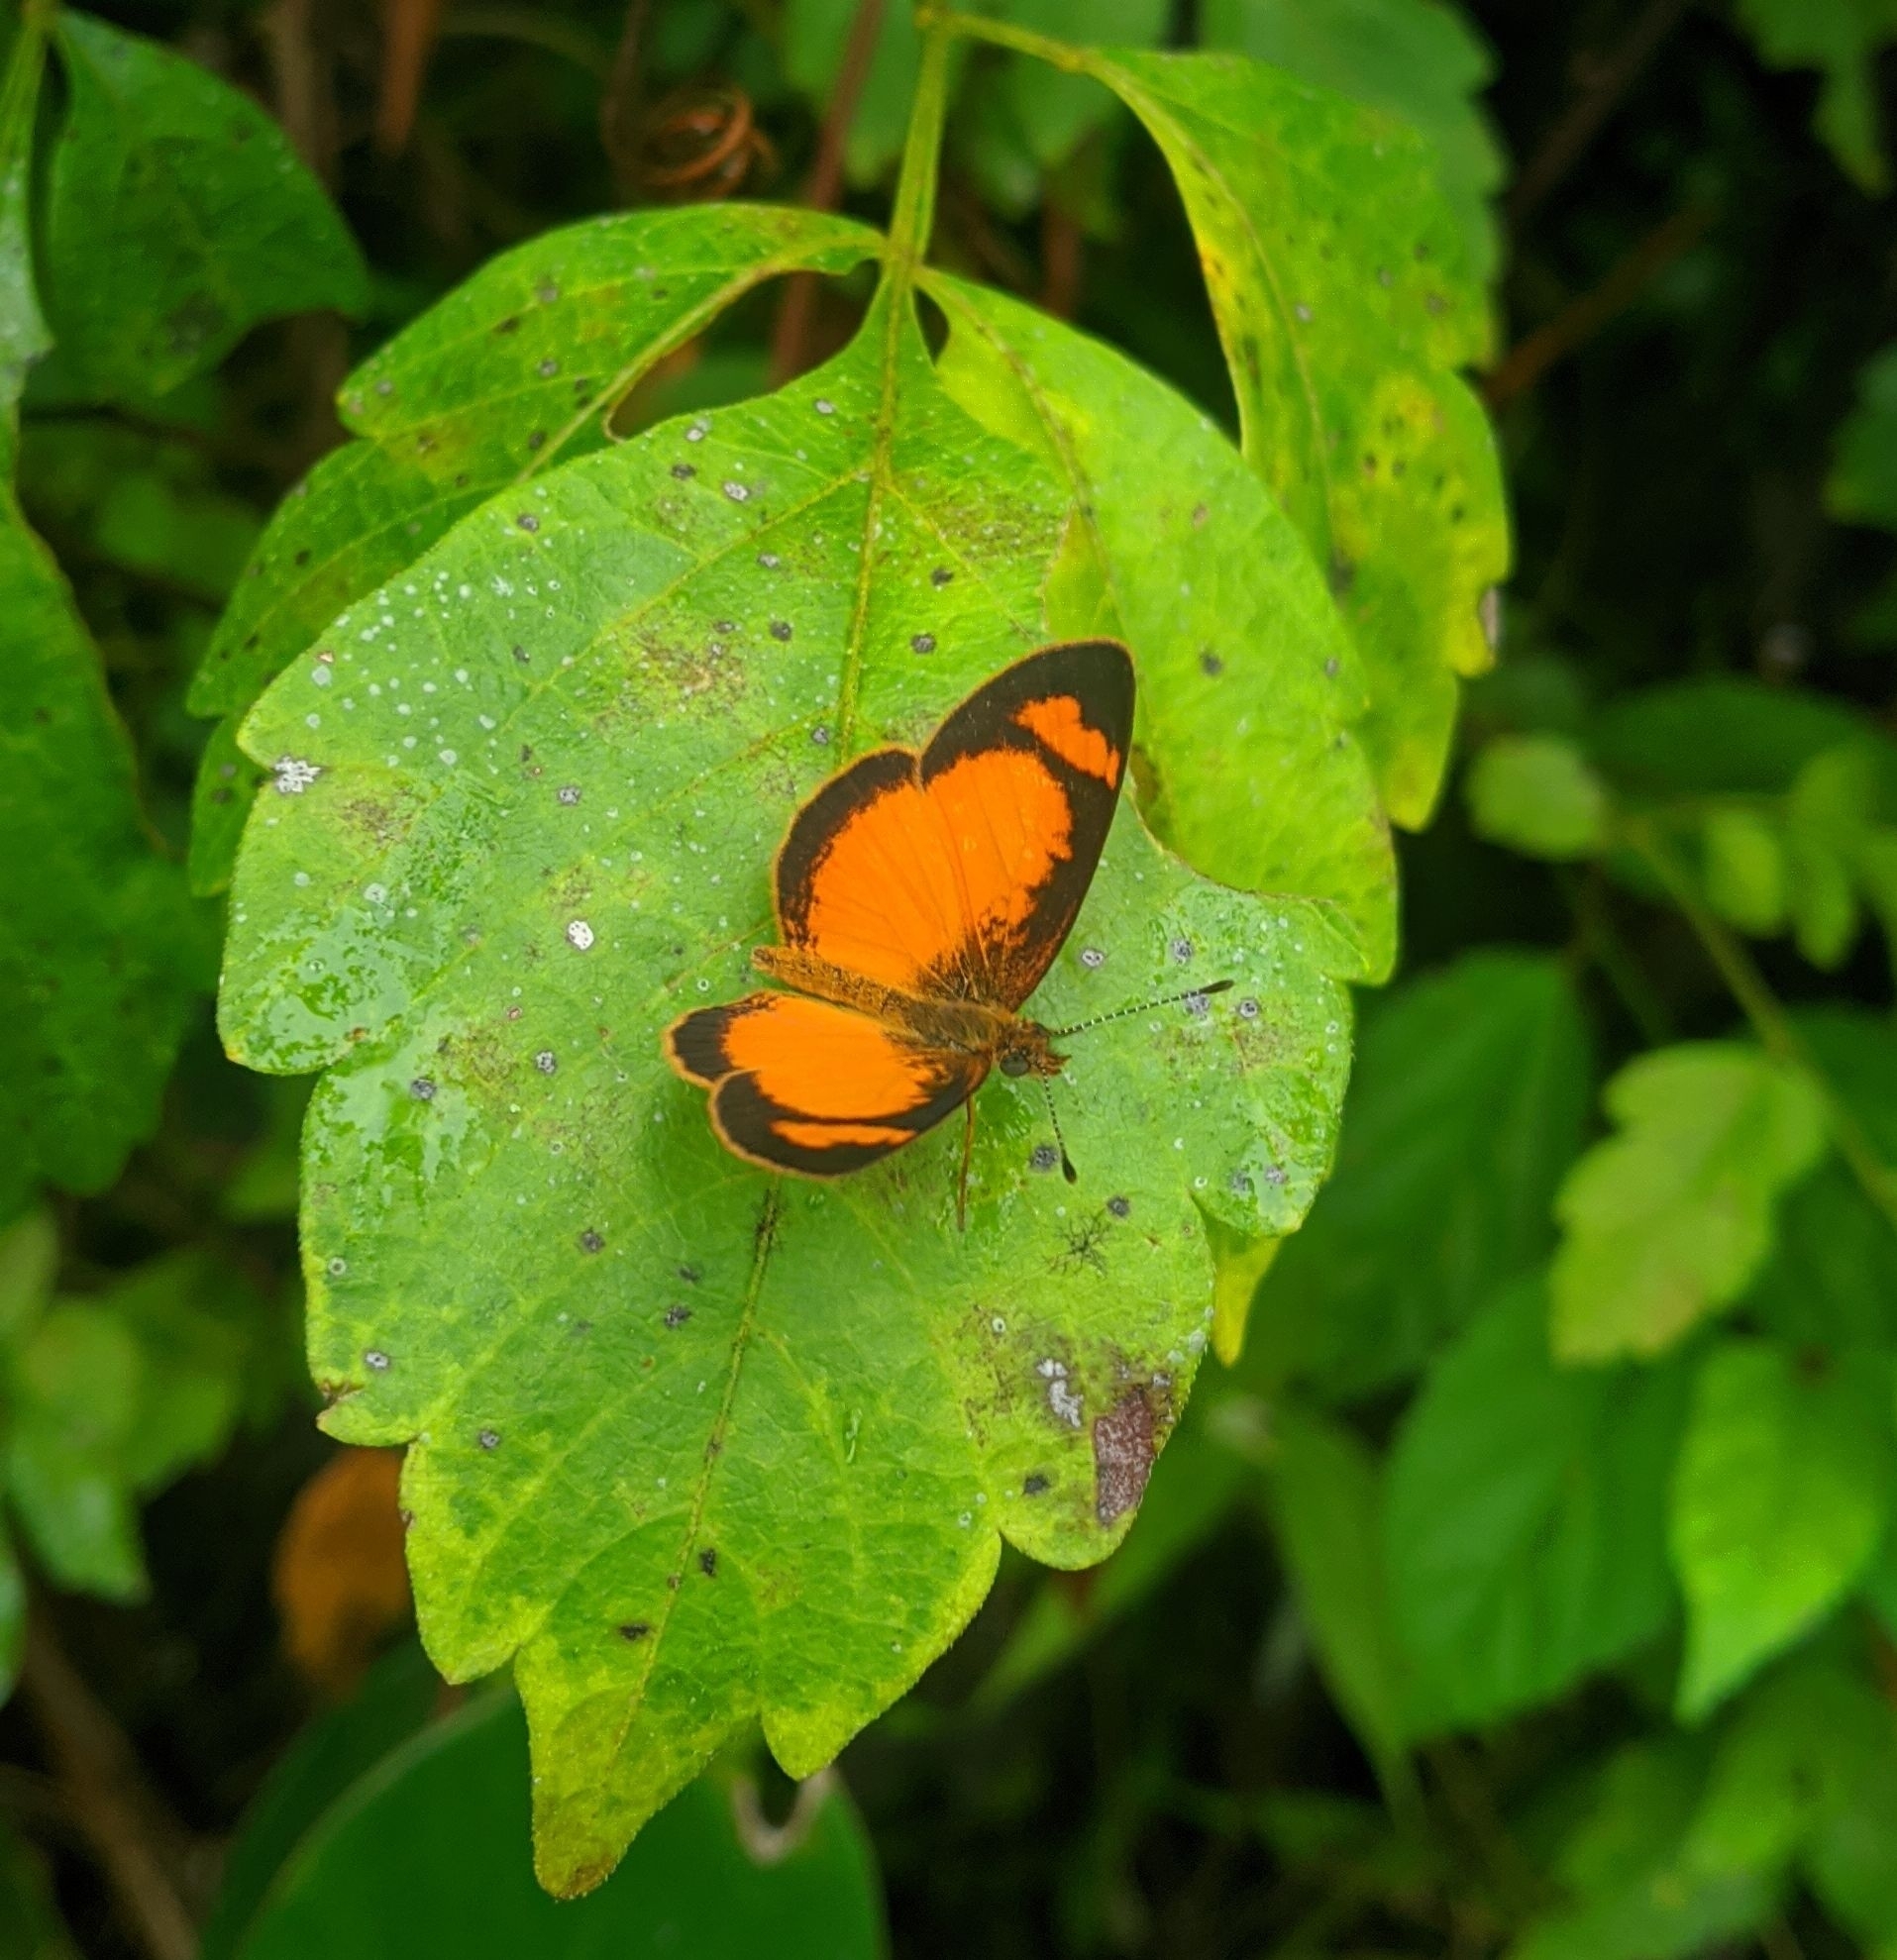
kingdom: Animalia
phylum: Arthropoda
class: Insecta
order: Lepidoptera
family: Nymphalidae
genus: Tegosa
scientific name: Tegosa anieta
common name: Black-bordered crescent
